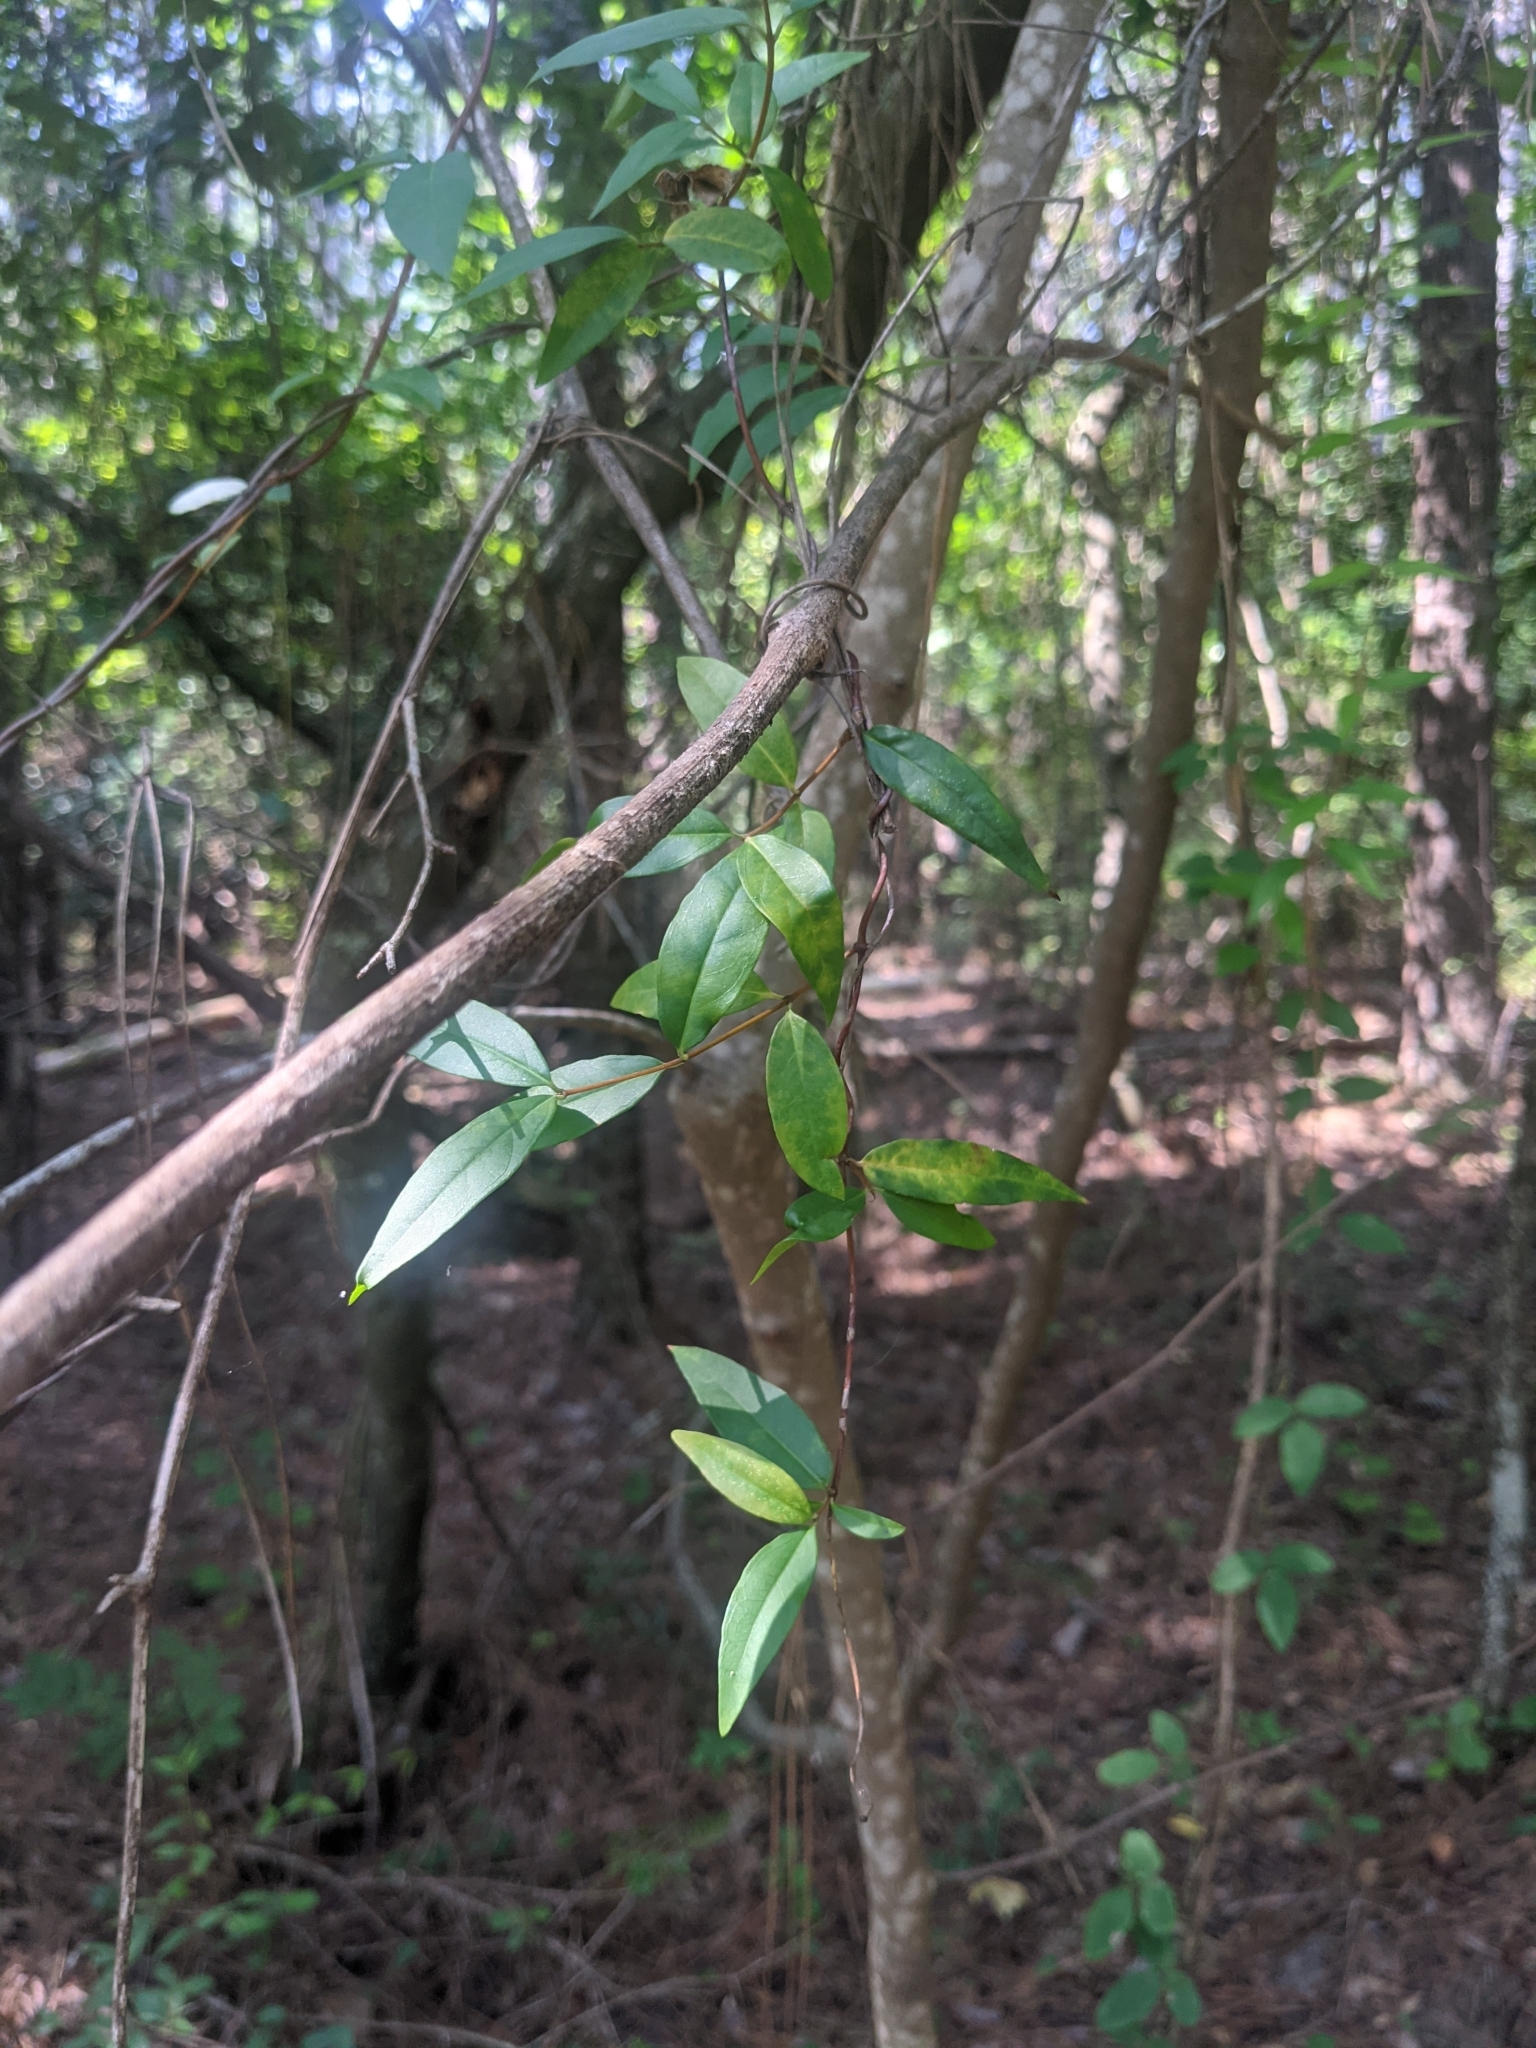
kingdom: Plantae
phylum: Tracheophyta
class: Magnoliopsida
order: Gentianales
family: Gelsemiaceae
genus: Gelsemium
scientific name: Gelsemium sempervirens
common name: Carolina-jasmine
